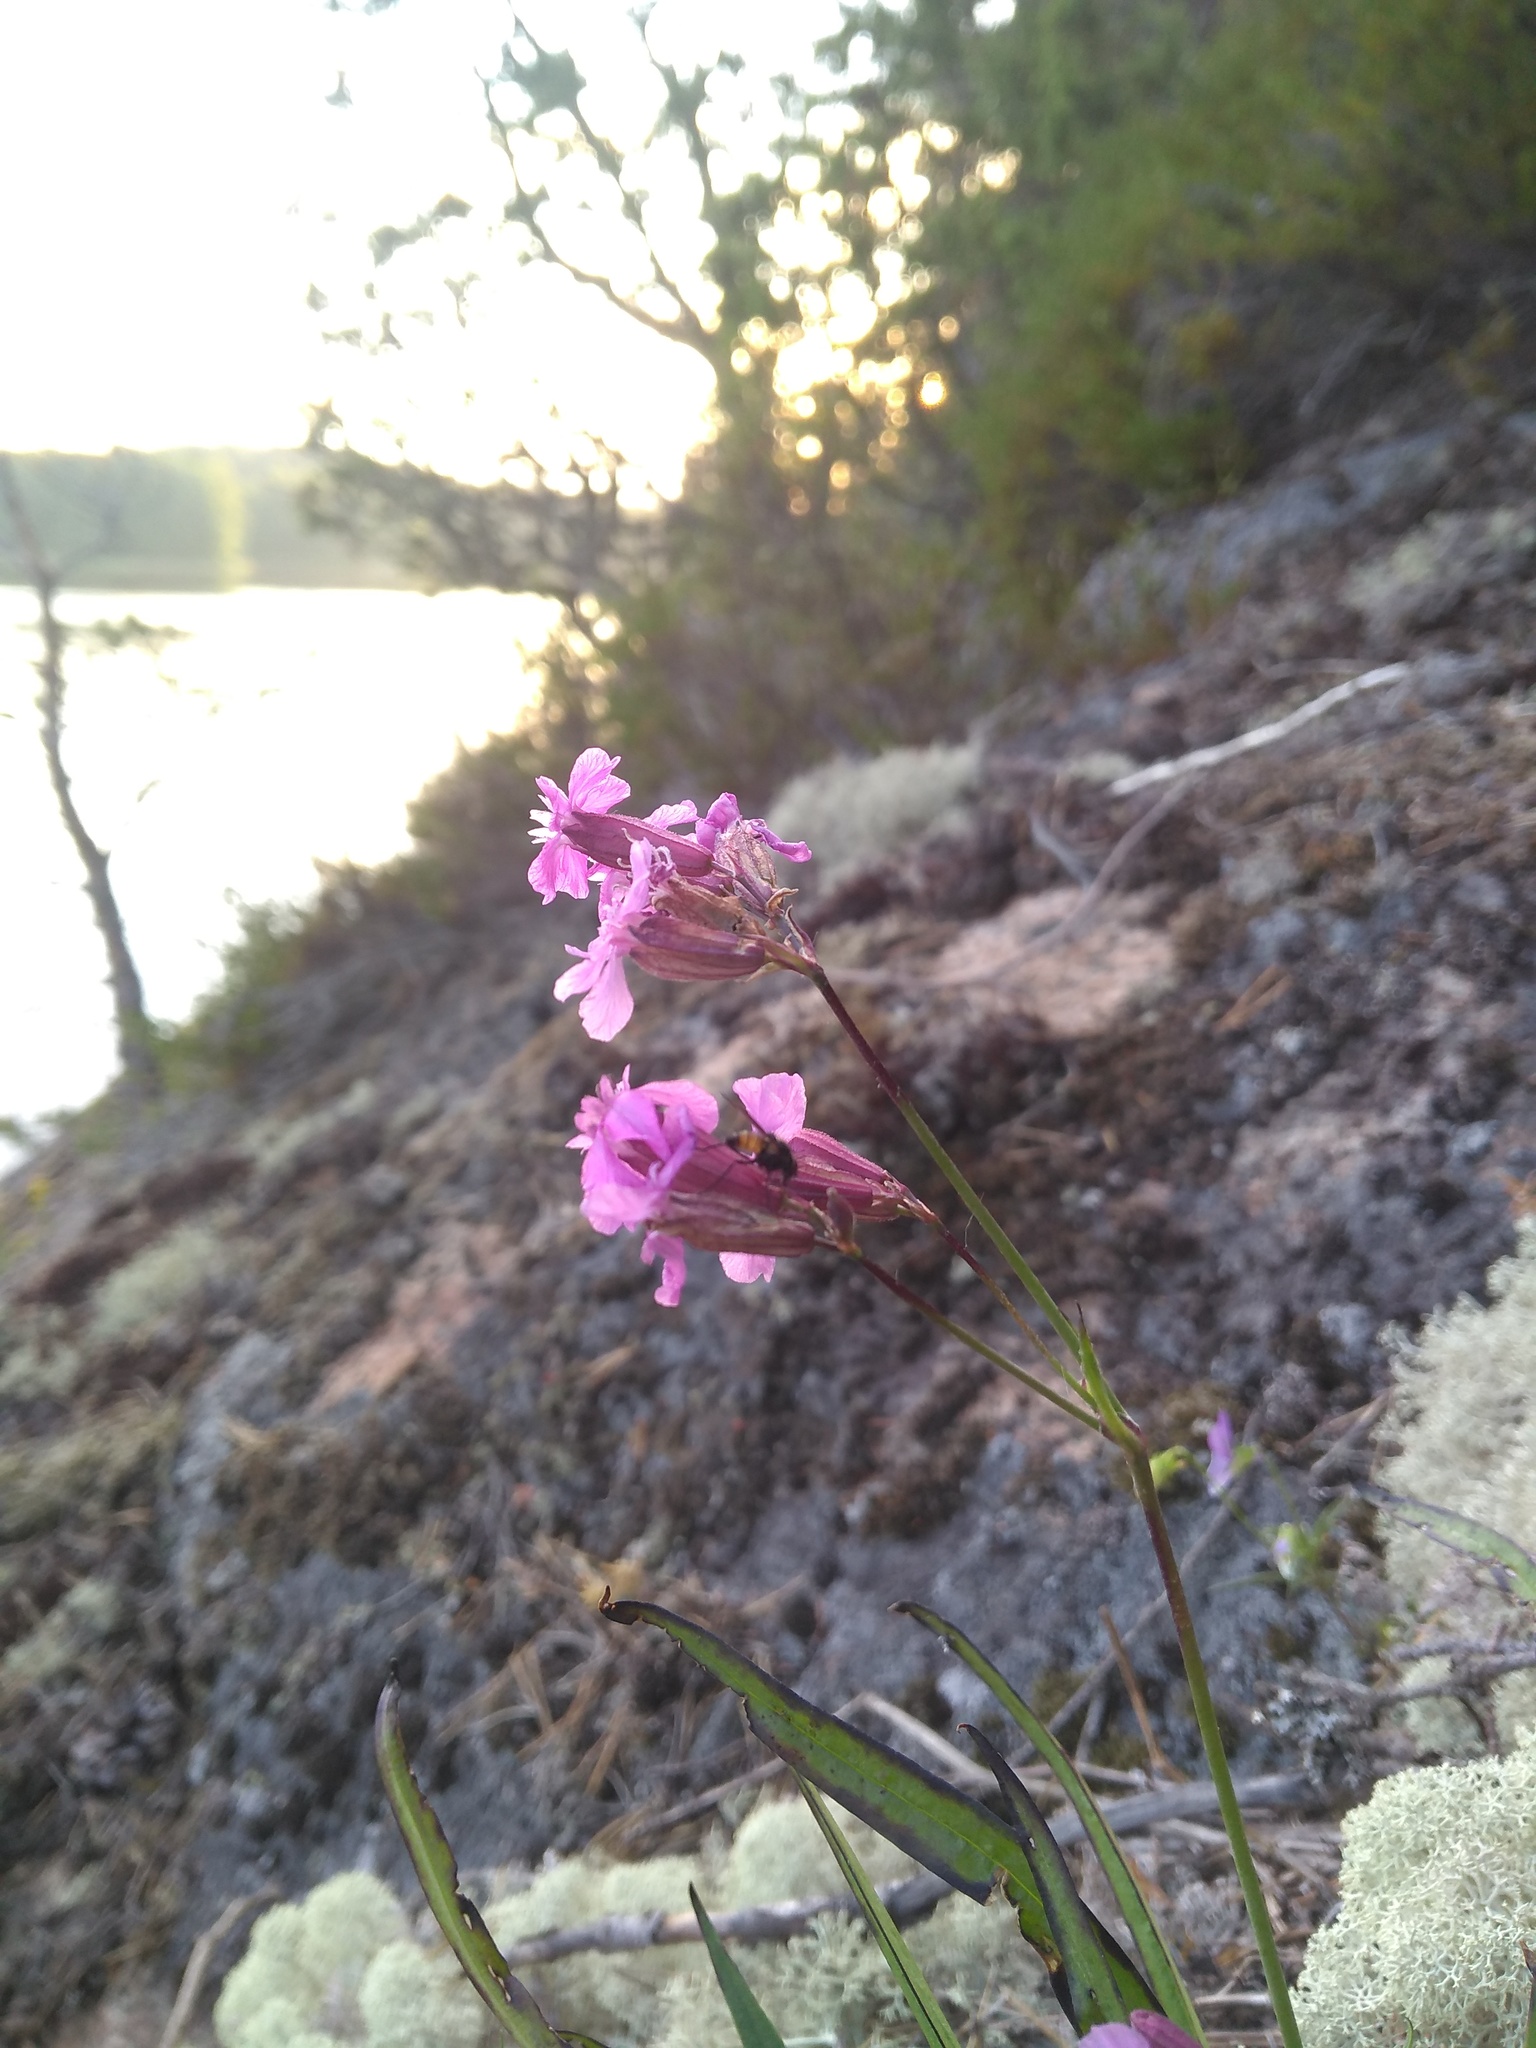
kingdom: Plantae
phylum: Tracheophyta
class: Magnoliopsida
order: Caryophyllales
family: Caryophyllaceae
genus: Viscaria
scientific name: Viscaria vulgaris
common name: Clammy campion
